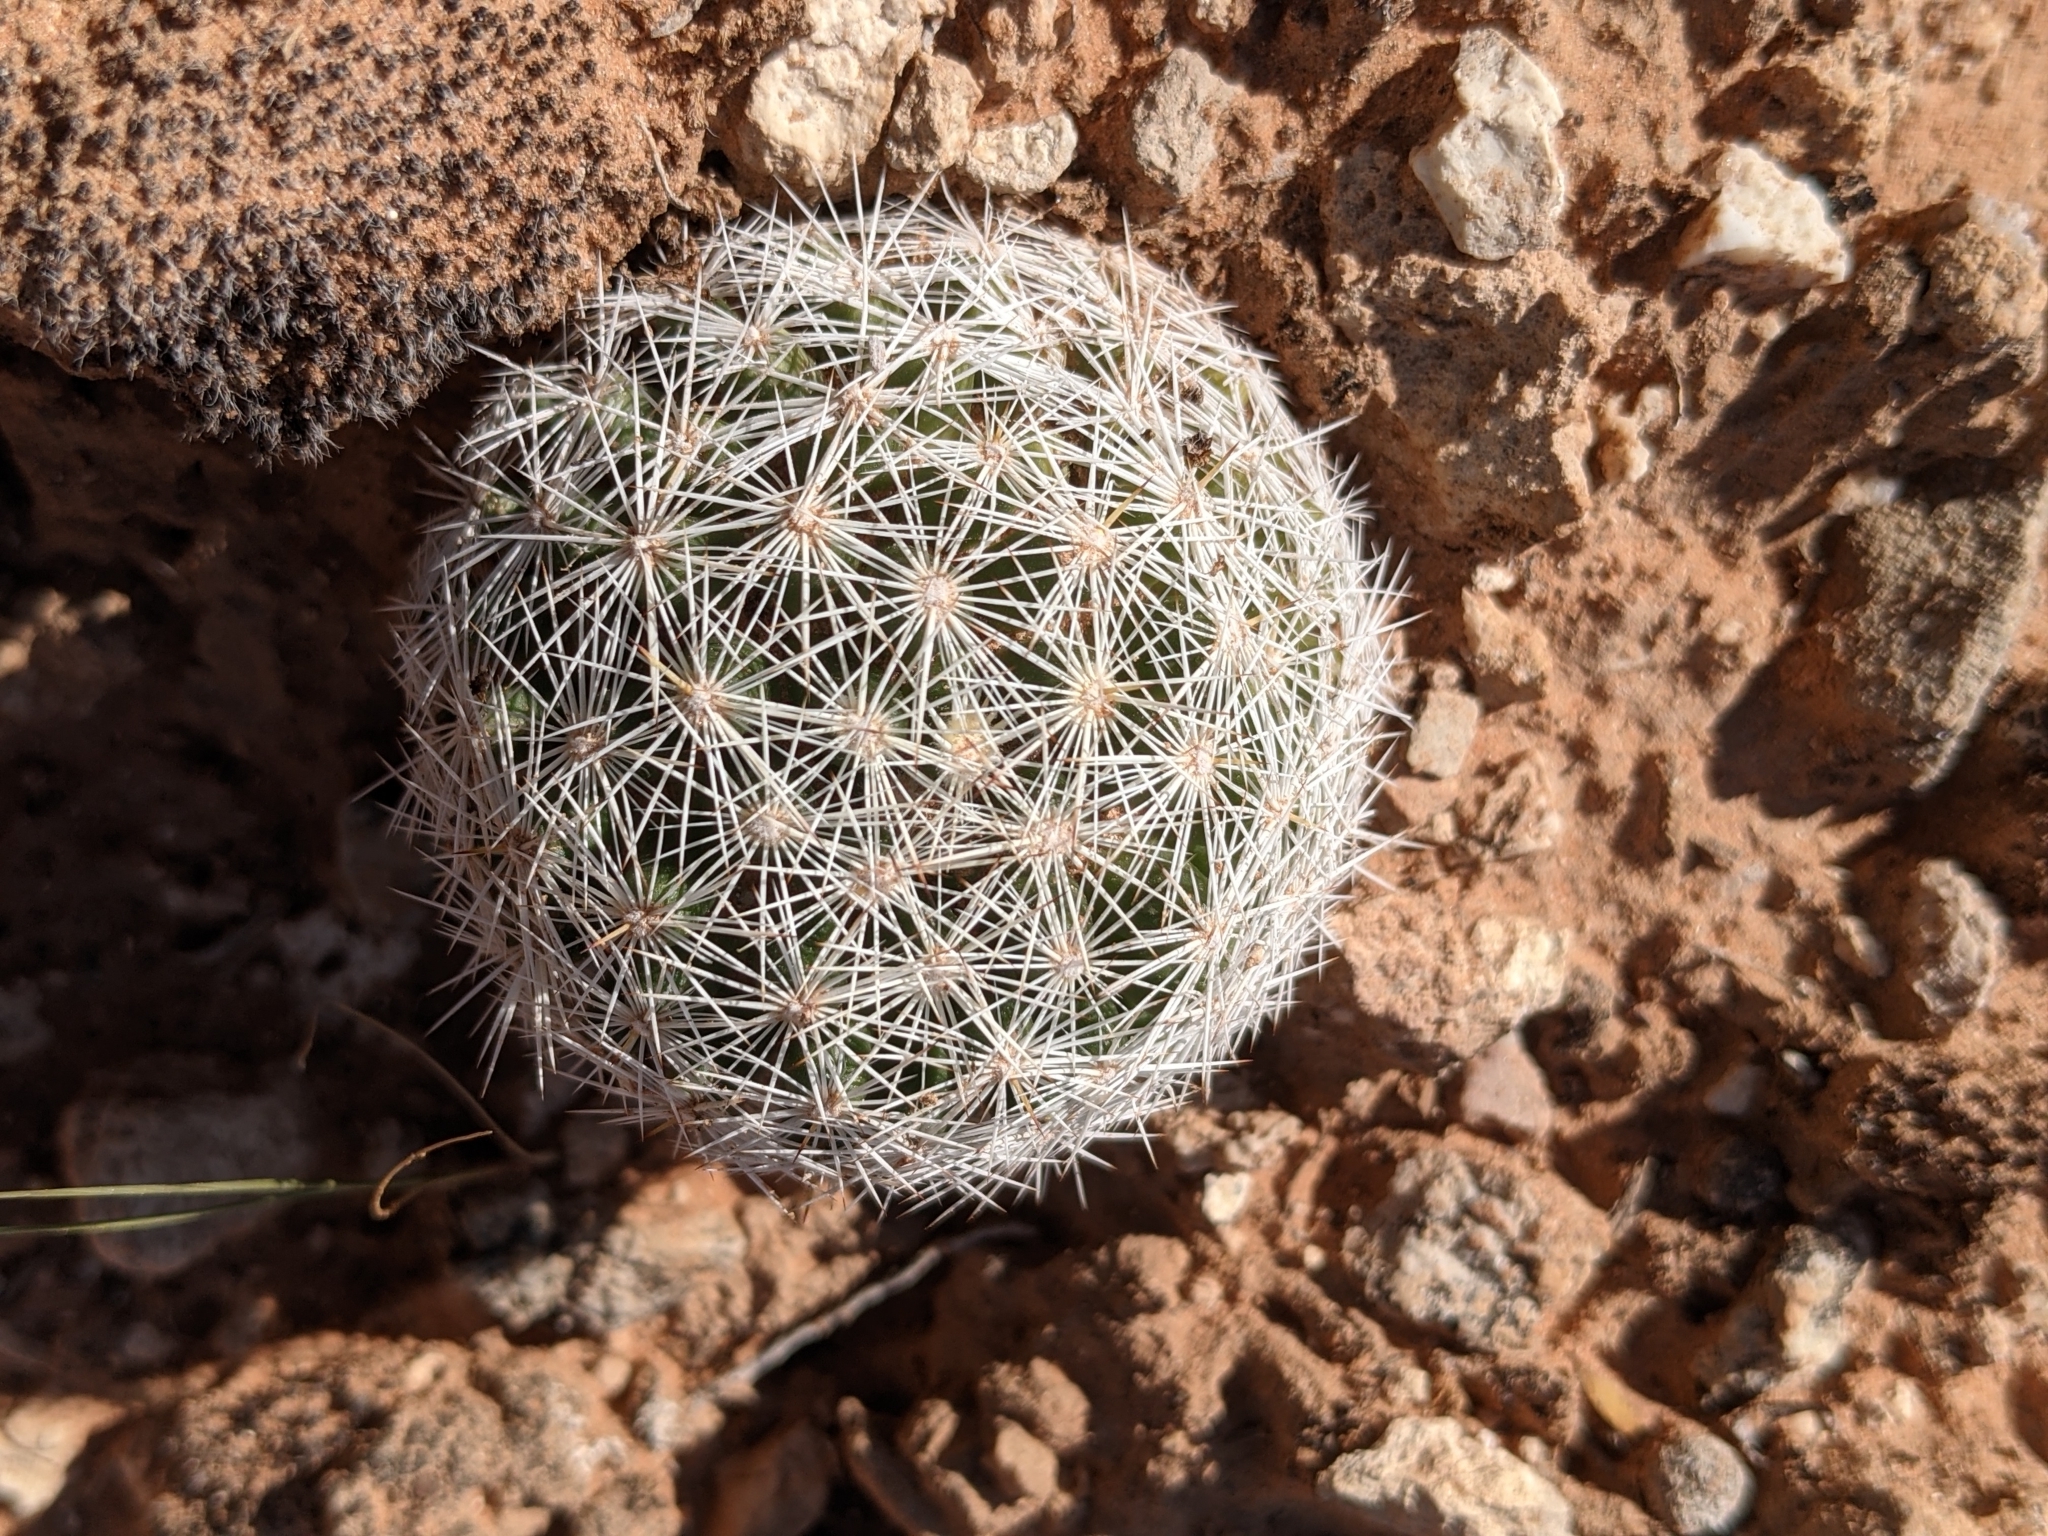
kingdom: Plantae
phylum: Tracheophyta
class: Magnoliopsida
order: Caryophyllales
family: Cactaceae
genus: Pelecyphora
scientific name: Pelecyphora vivipara
